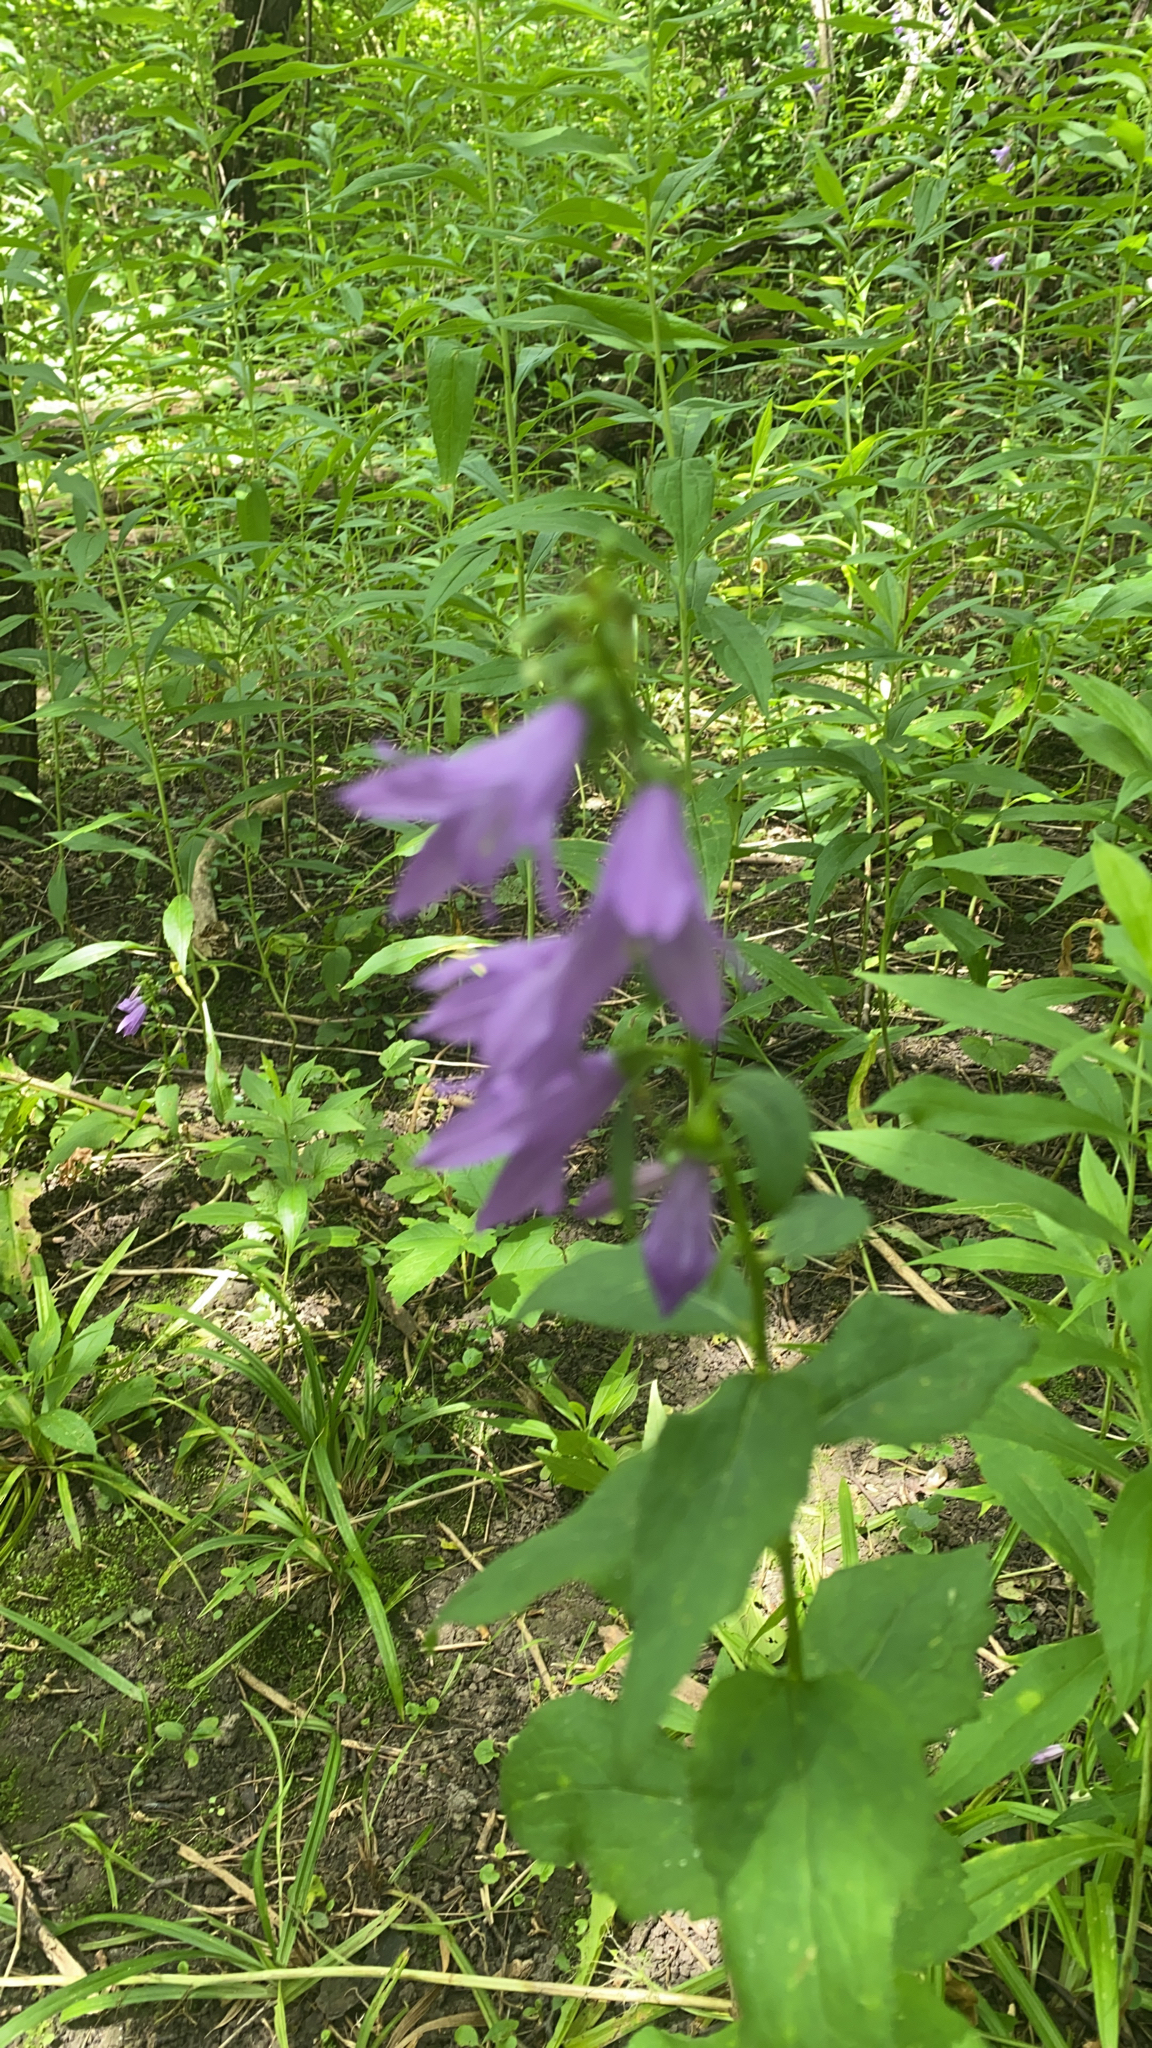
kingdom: Plantae
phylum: Tracheophyta
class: Magnoliopsida
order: Asterales
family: Campanulaceae
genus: Campanula
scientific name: Campanula rapunculoides
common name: Creeping bellflower
